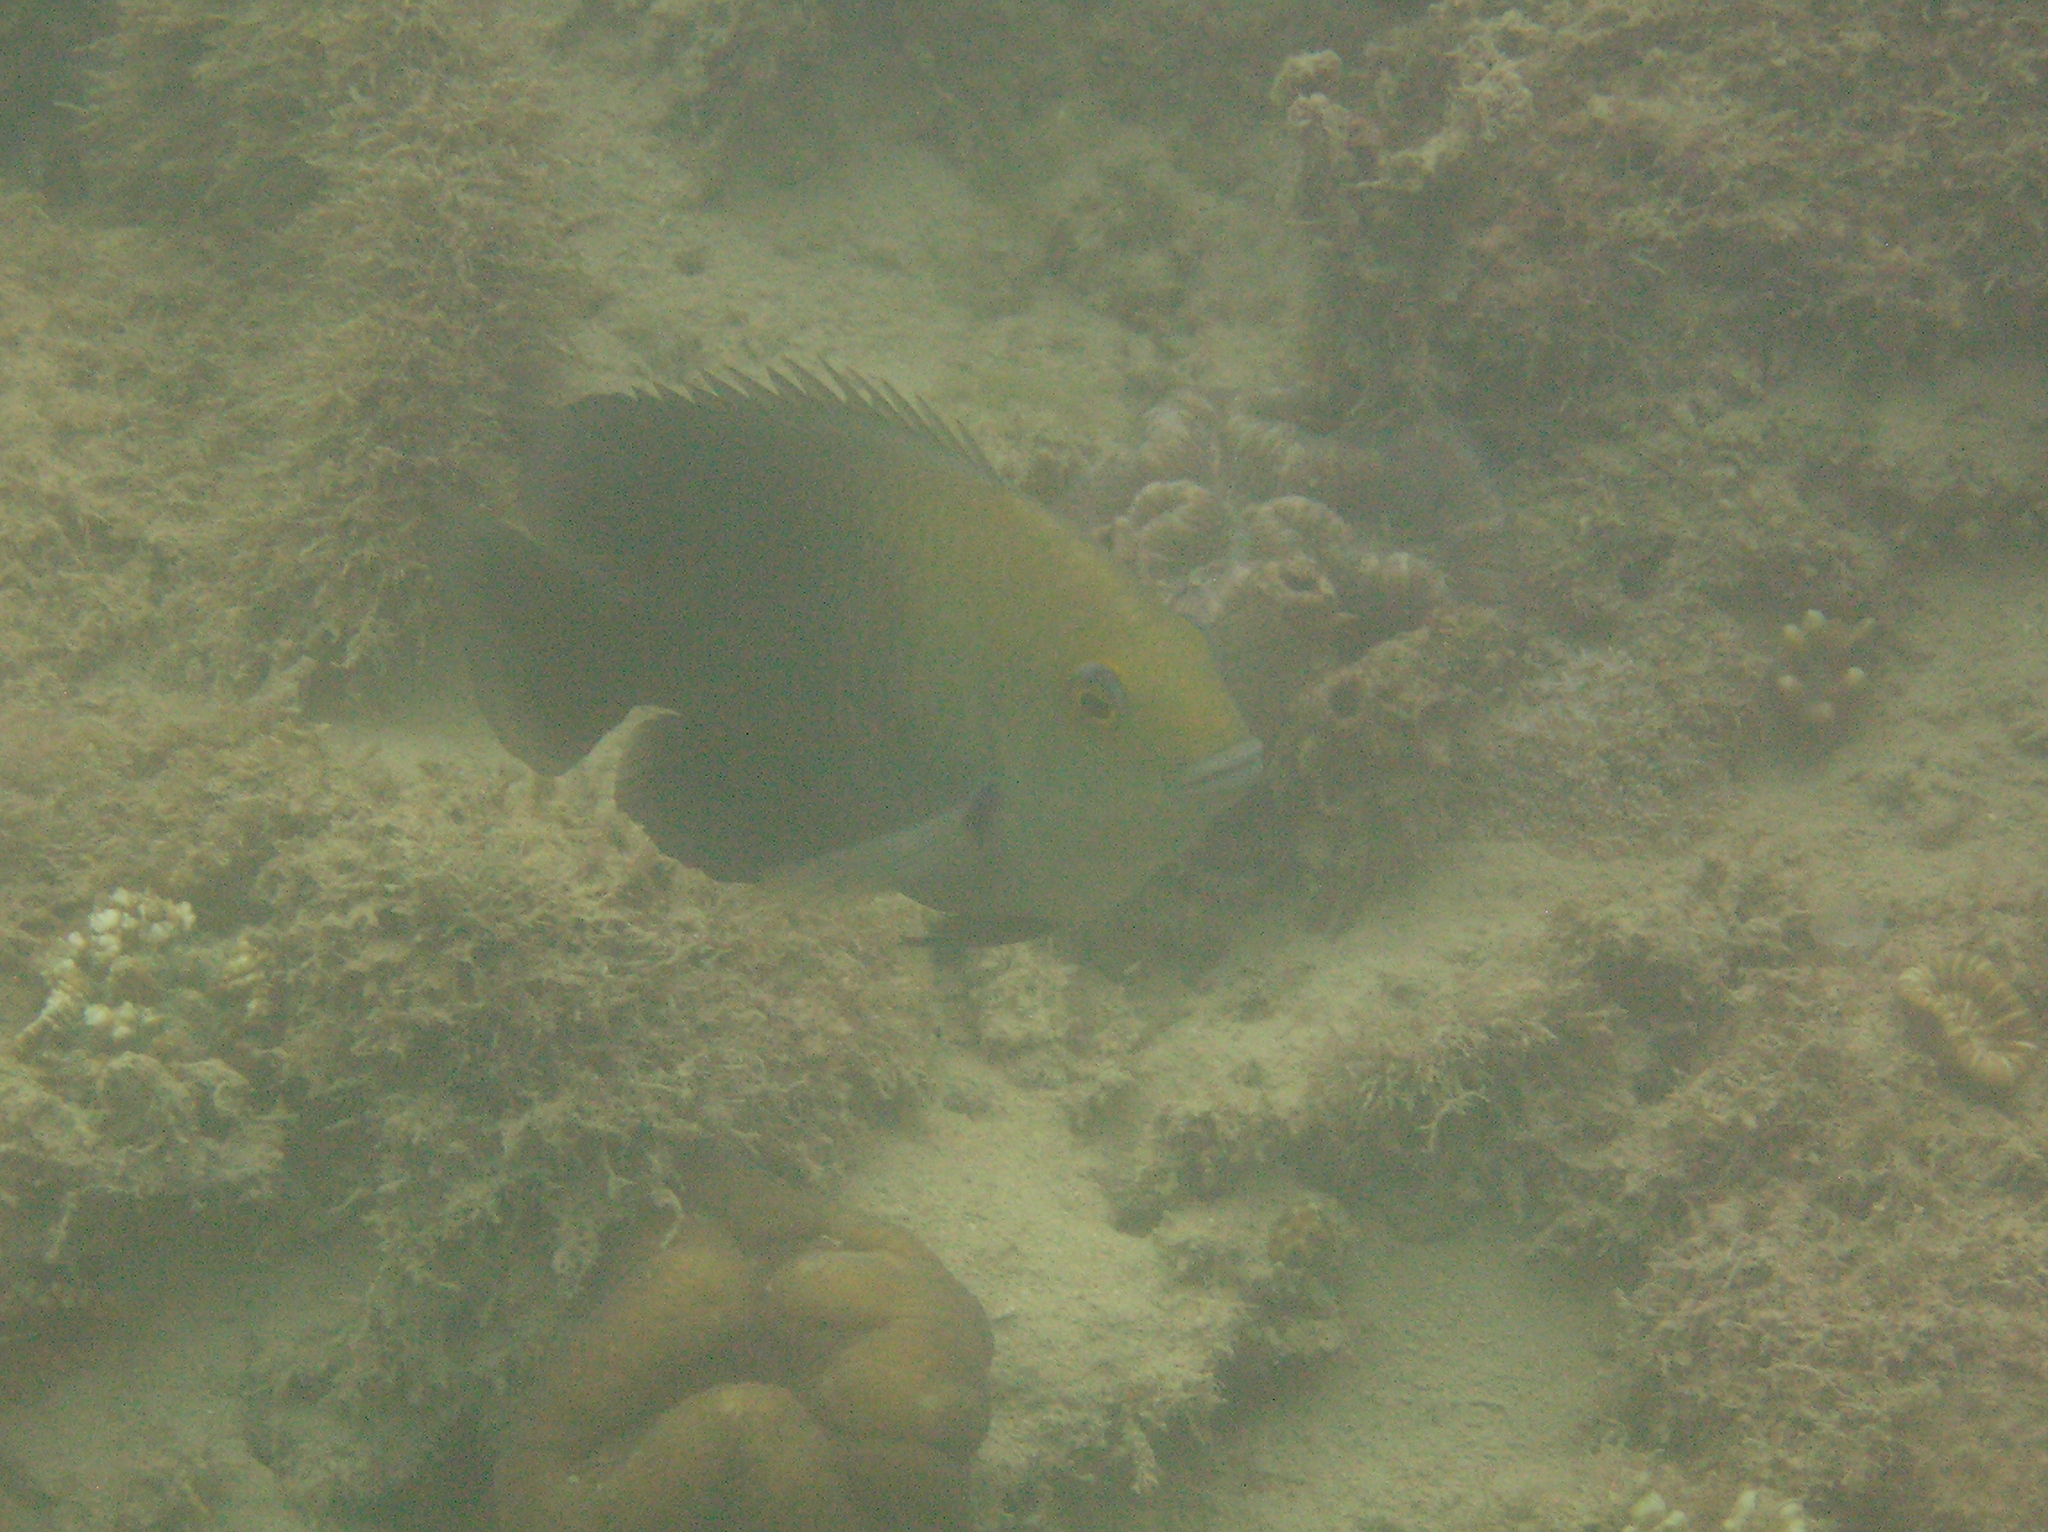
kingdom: Animalia
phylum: Chordata
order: Perciformes
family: Pomacentridae
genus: Hemiglyphidodon
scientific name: Hemiglyphidodon plagiometopon
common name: Lagoon damsel
